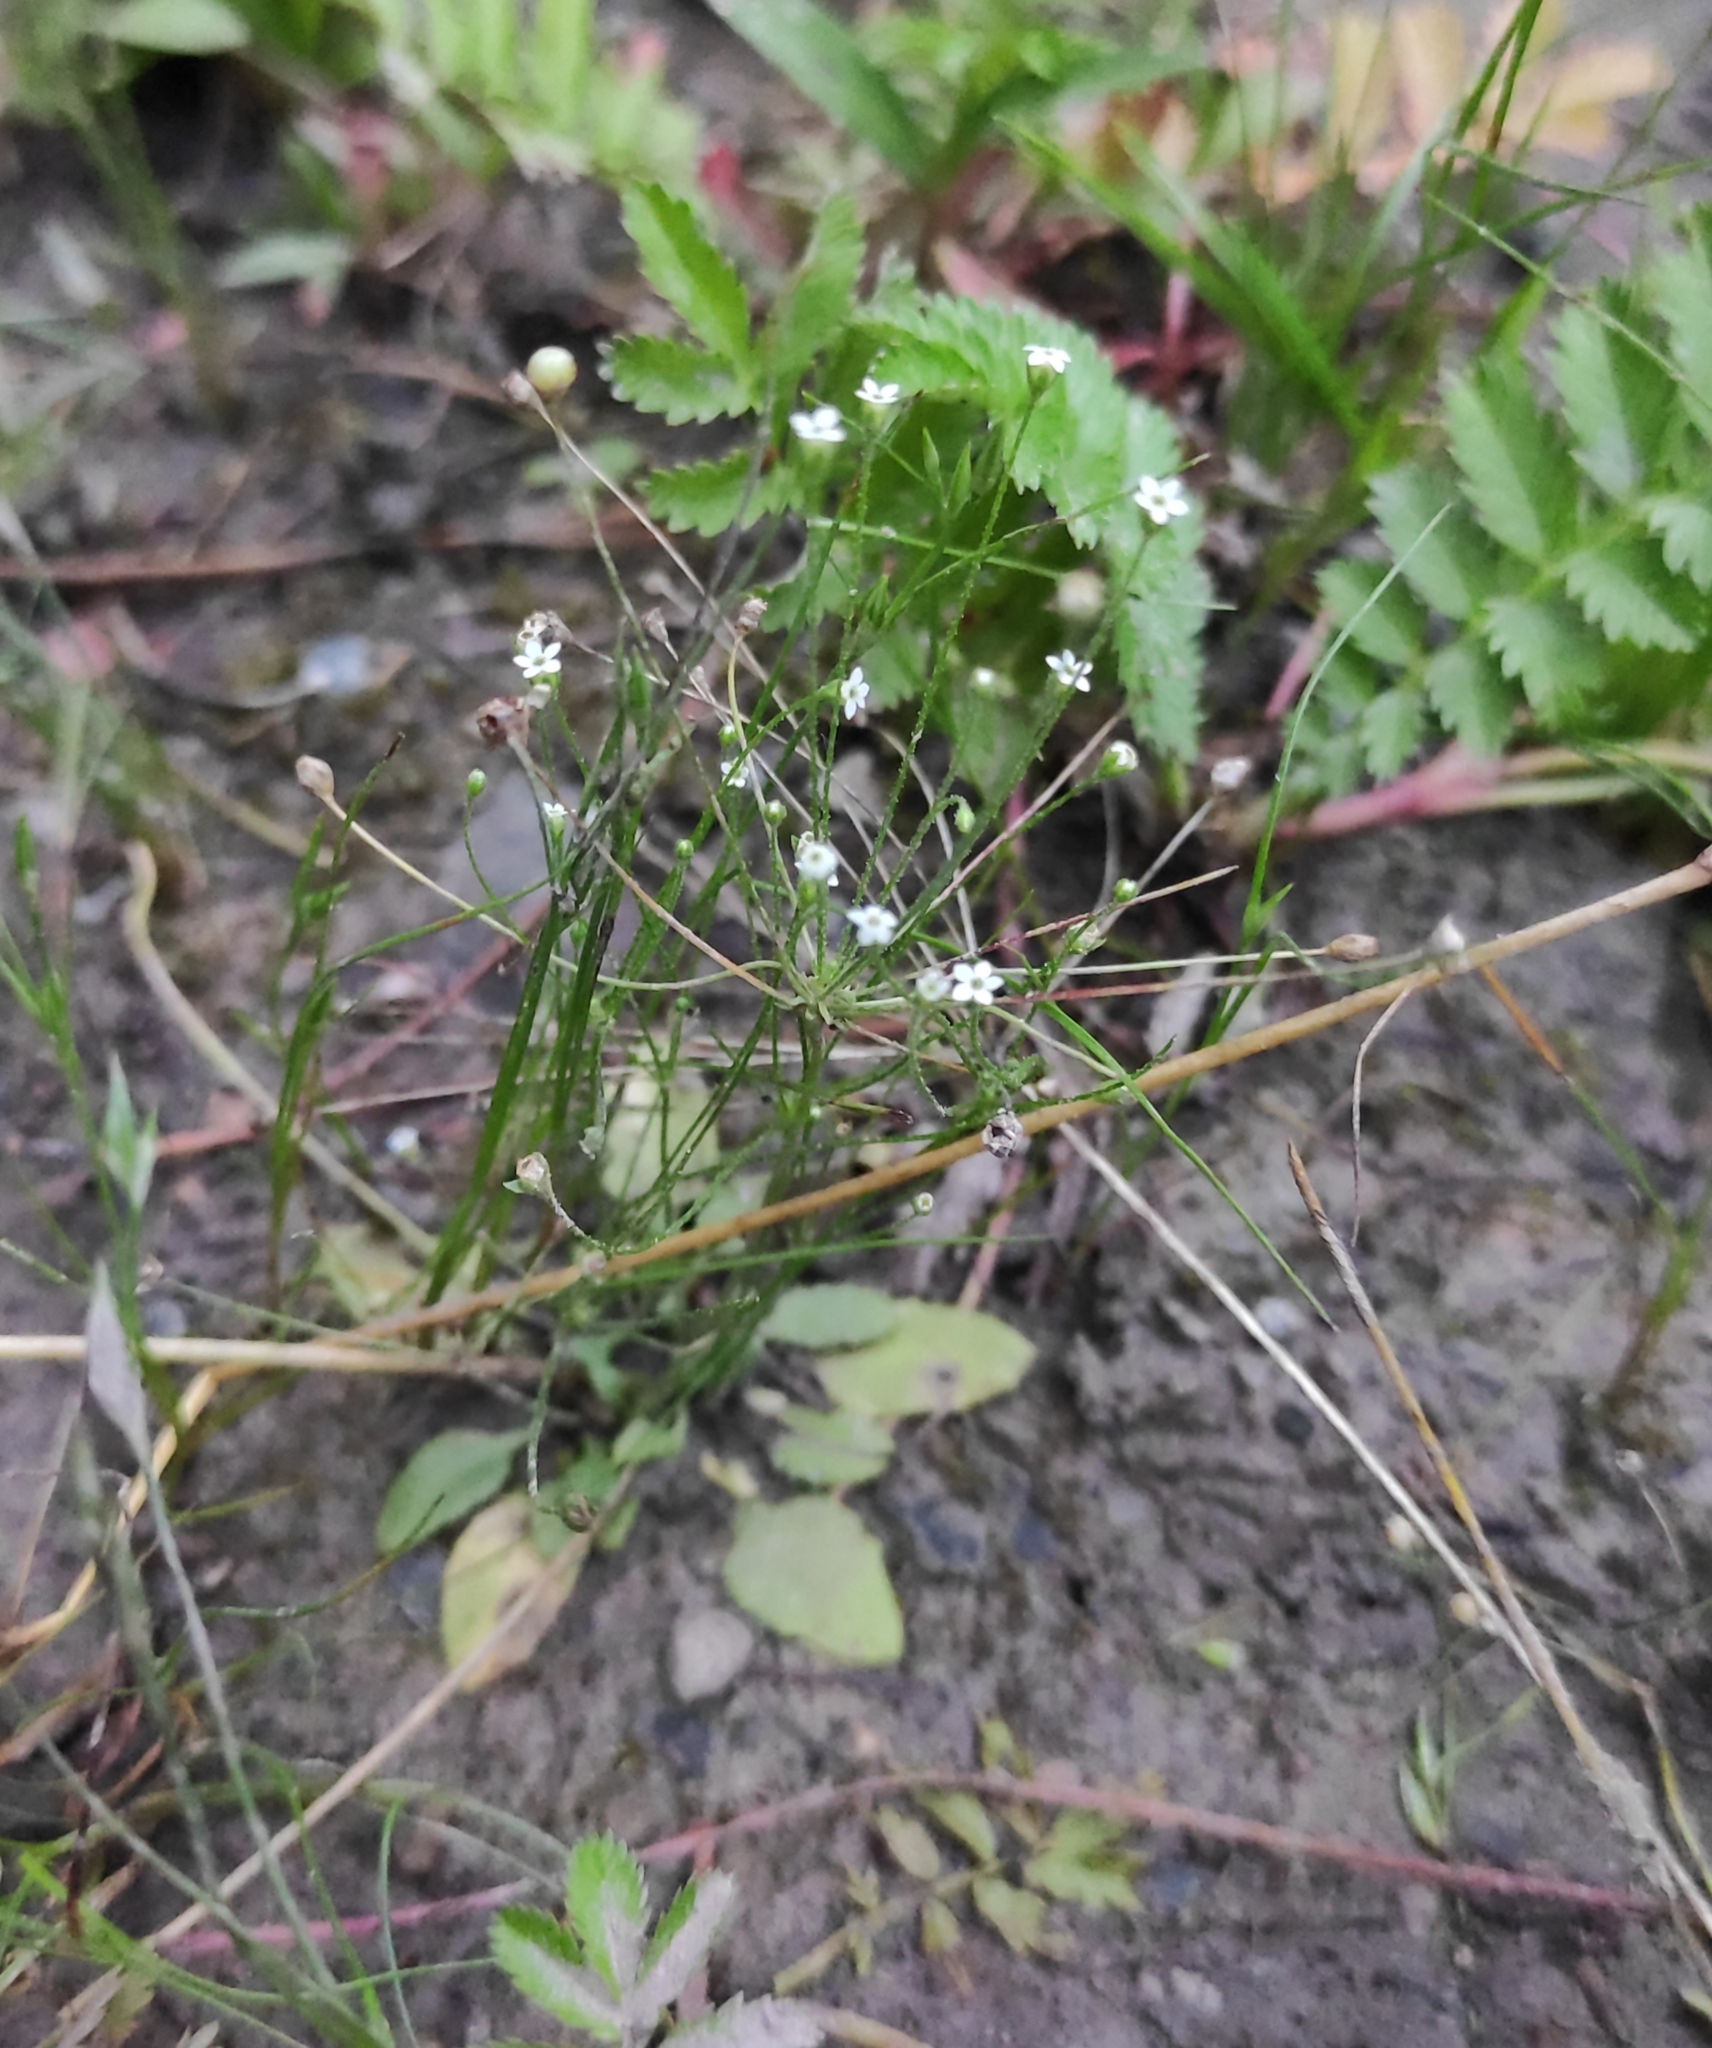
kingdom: Plantae
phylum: Tracheophyta
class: Magnoliopsida
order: Ericales
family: Primulaceae
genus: Androsace
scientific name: Androsace filiformis
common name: Filiform rock jasmine
